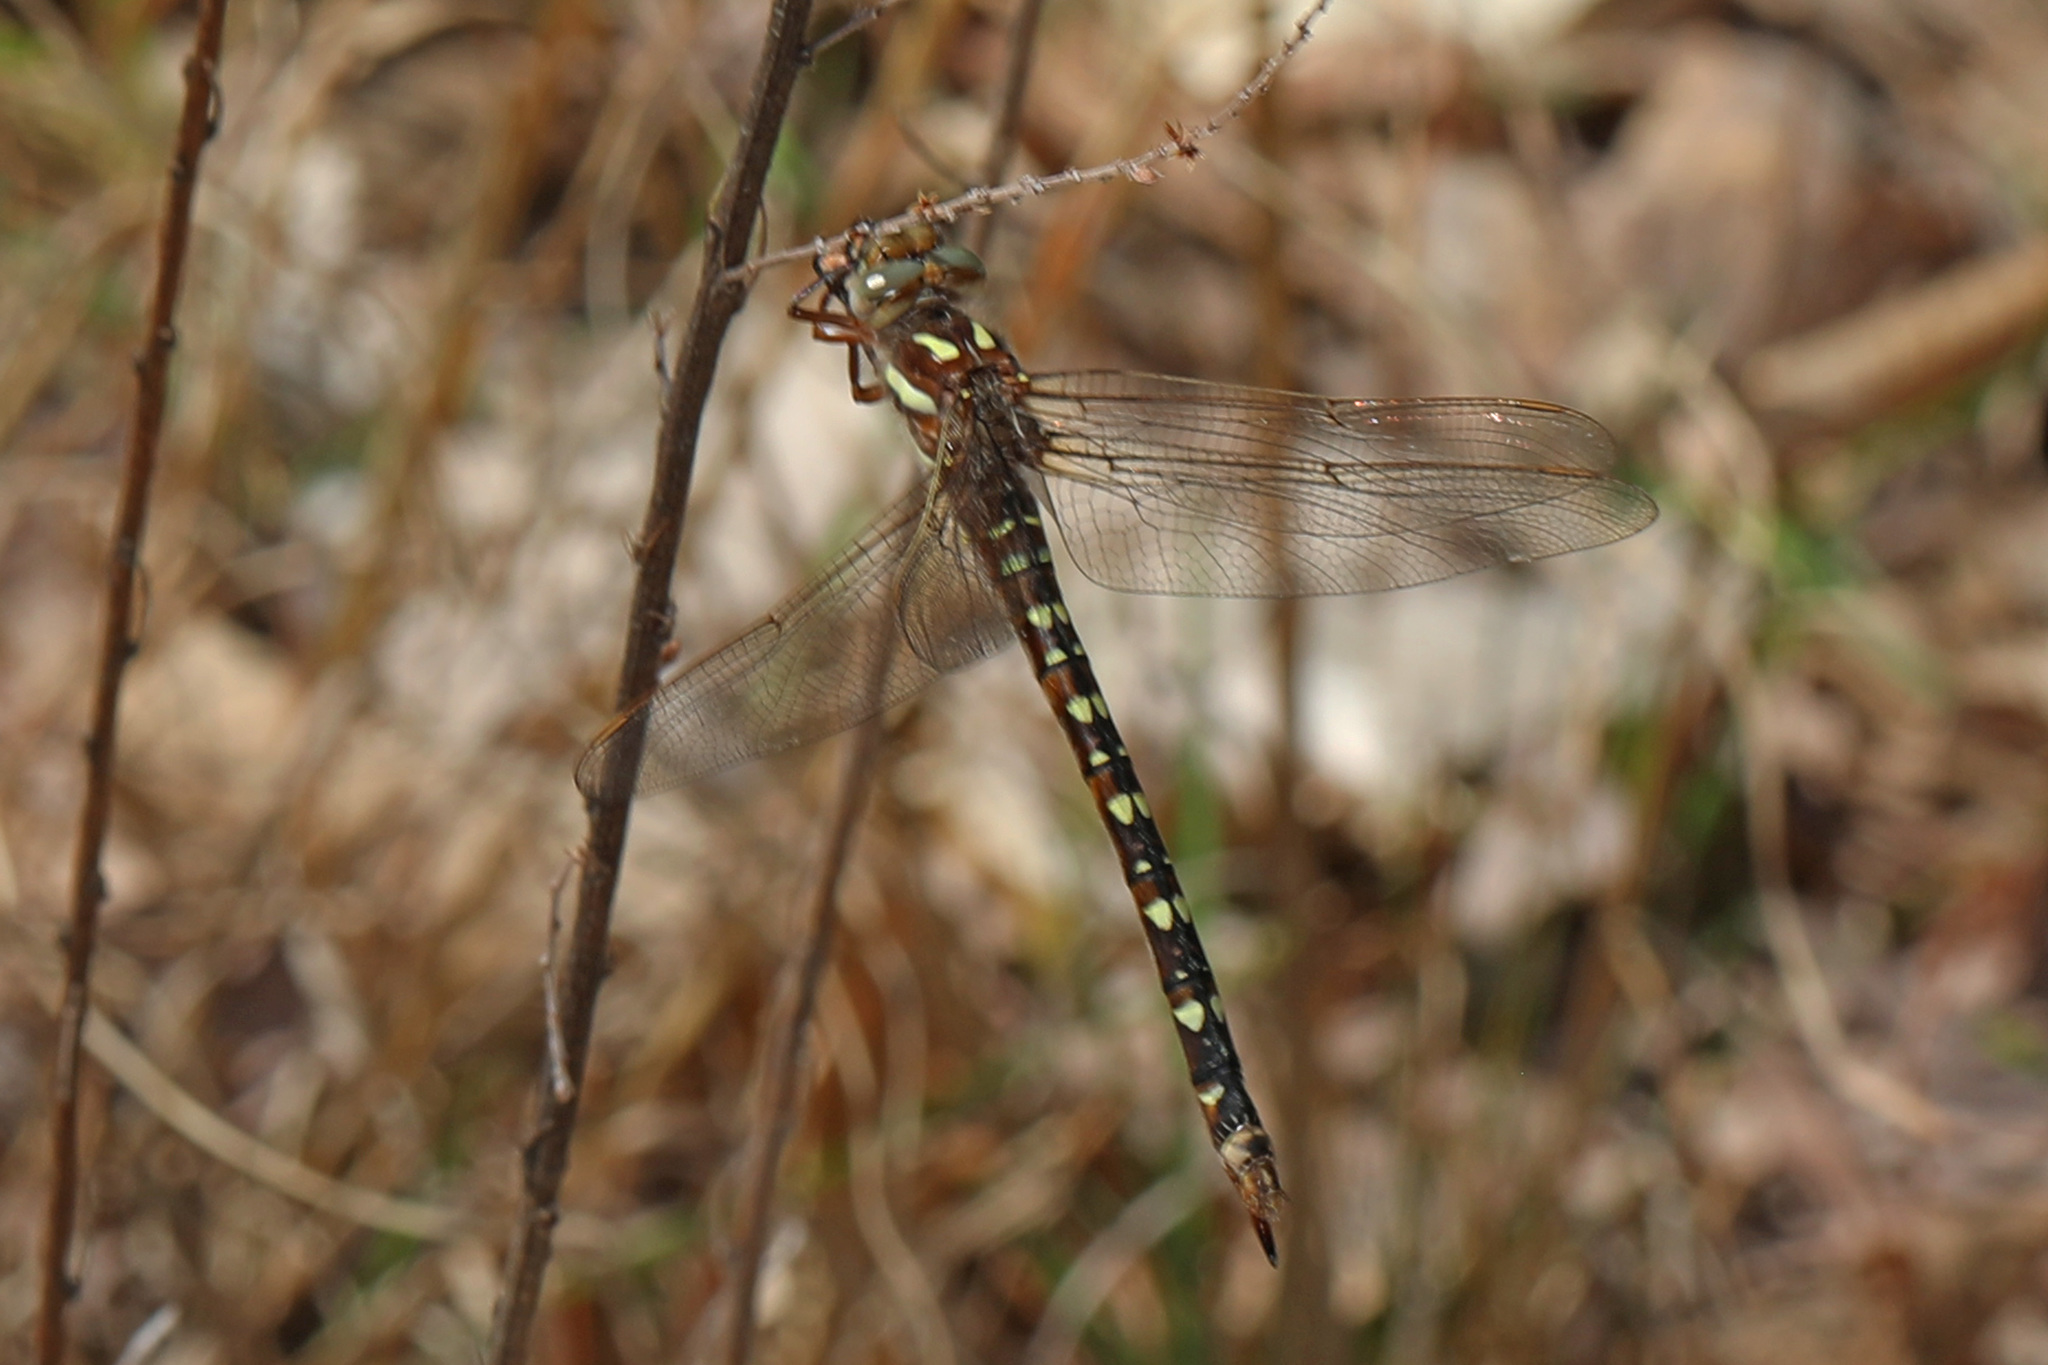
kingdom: Animalia
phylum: Arthropoda
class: Insecta
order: Odonata
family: Cordulegastridae
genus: Cordulegaster
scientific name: Cordulegaster maculata
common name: Twin-spotted spiketail
